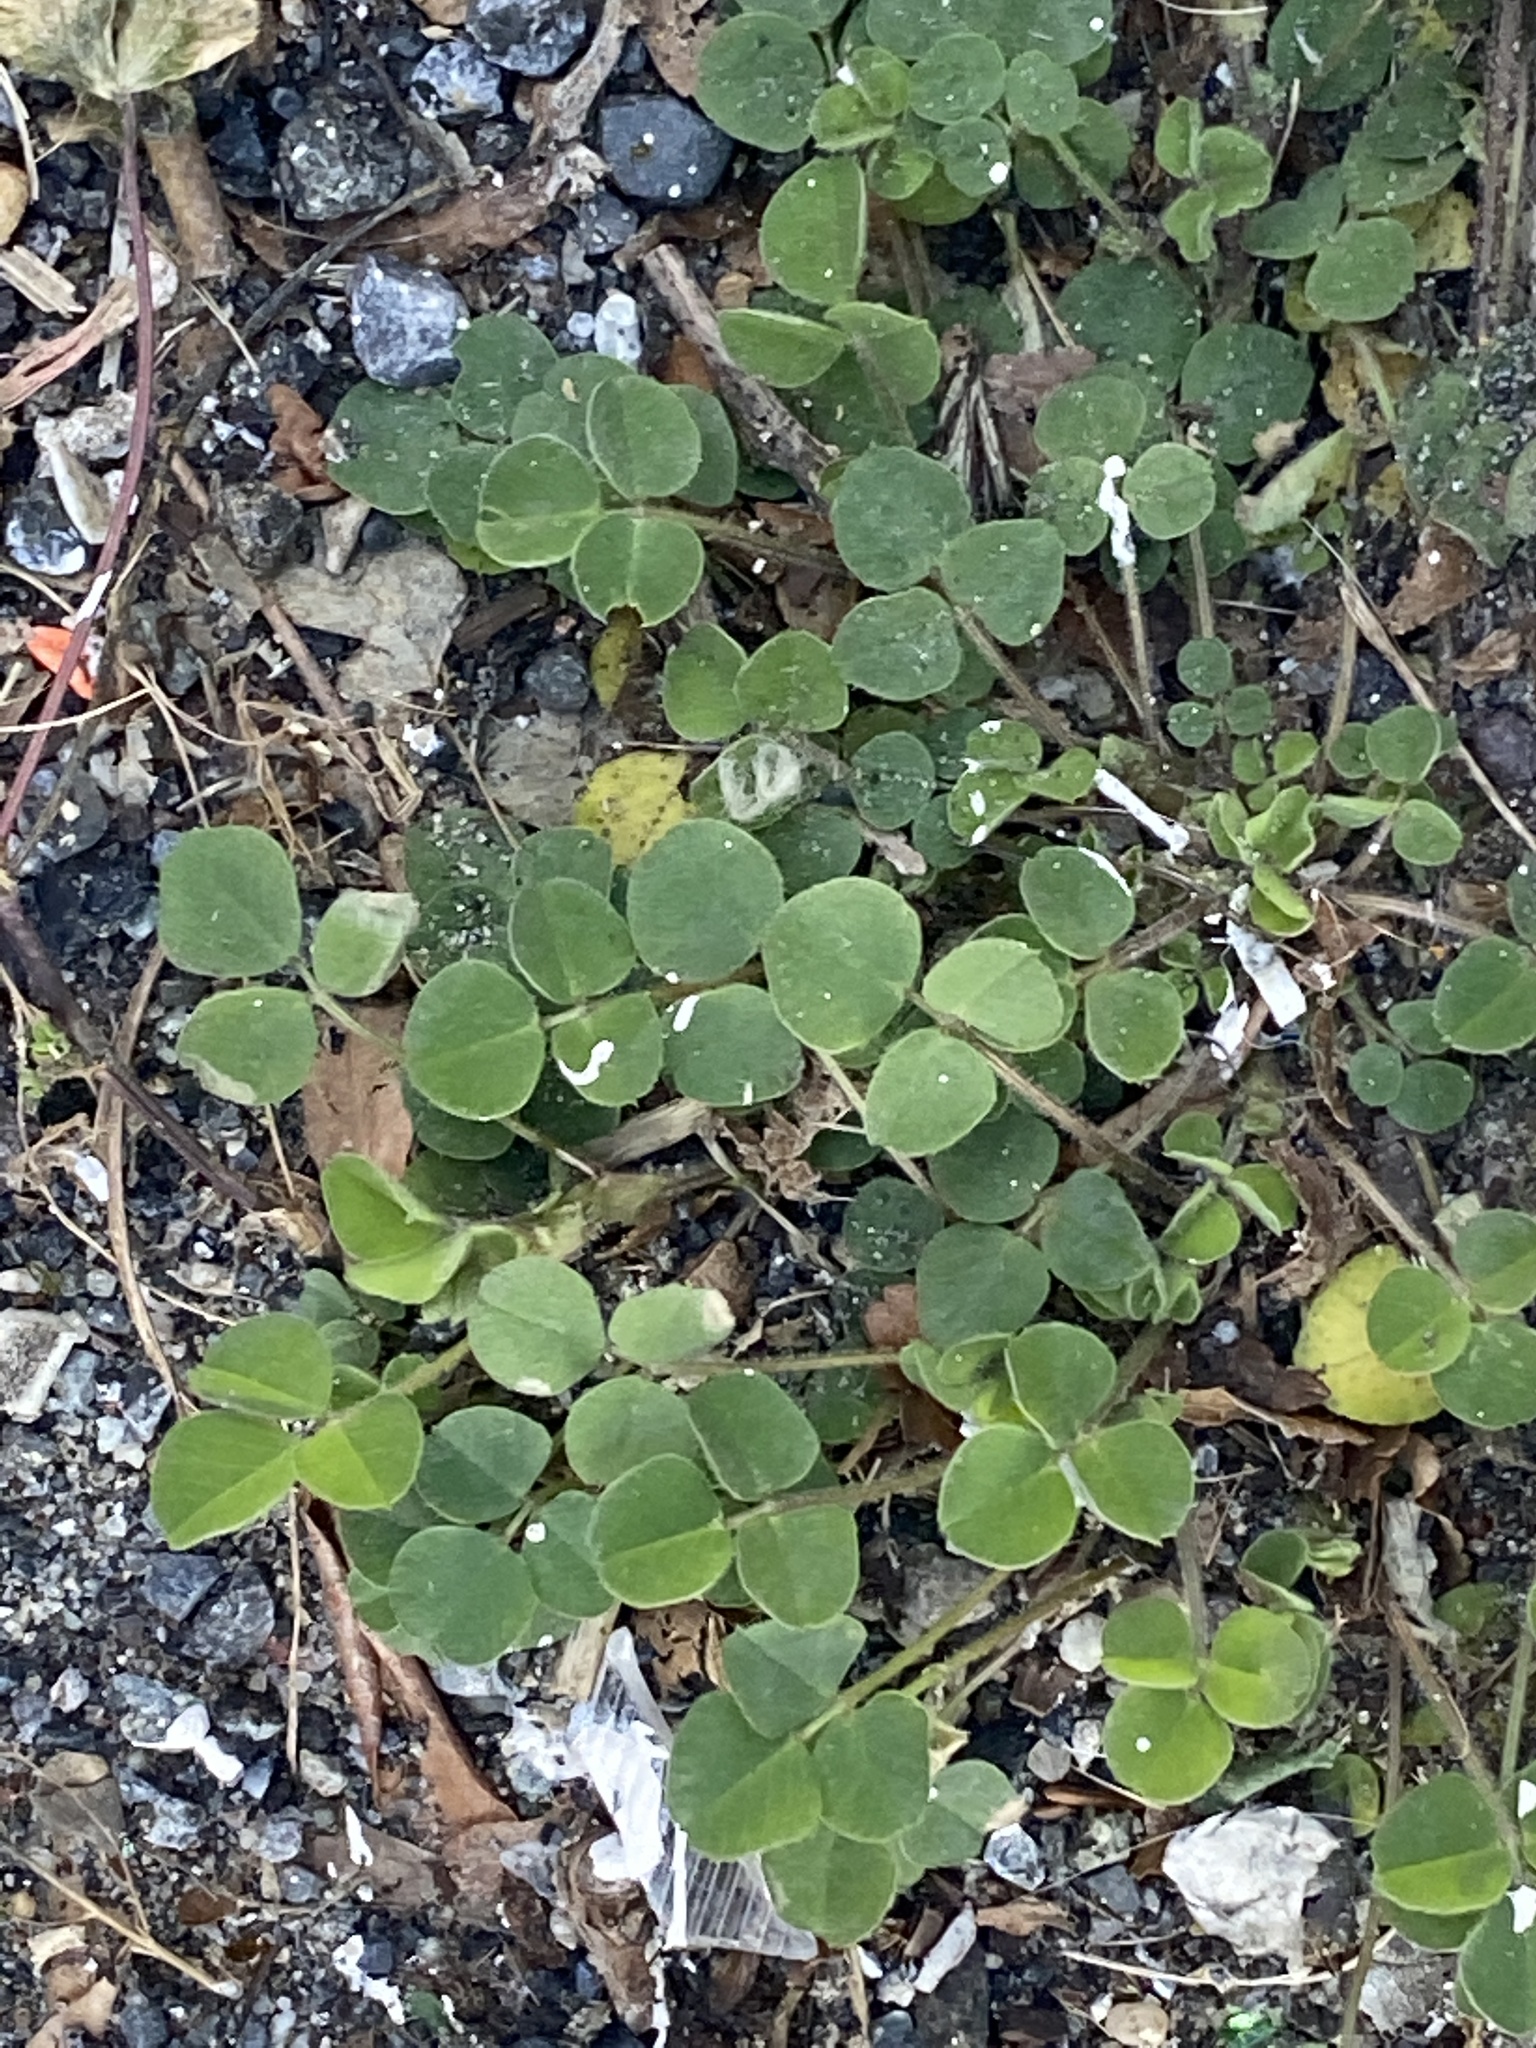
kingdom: Plantae
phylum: Tracheophyta
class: Magnoliopsida
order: Fabales
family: Fabaceae
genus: Medicago
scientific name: Medicago lupulina
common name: Black medick
